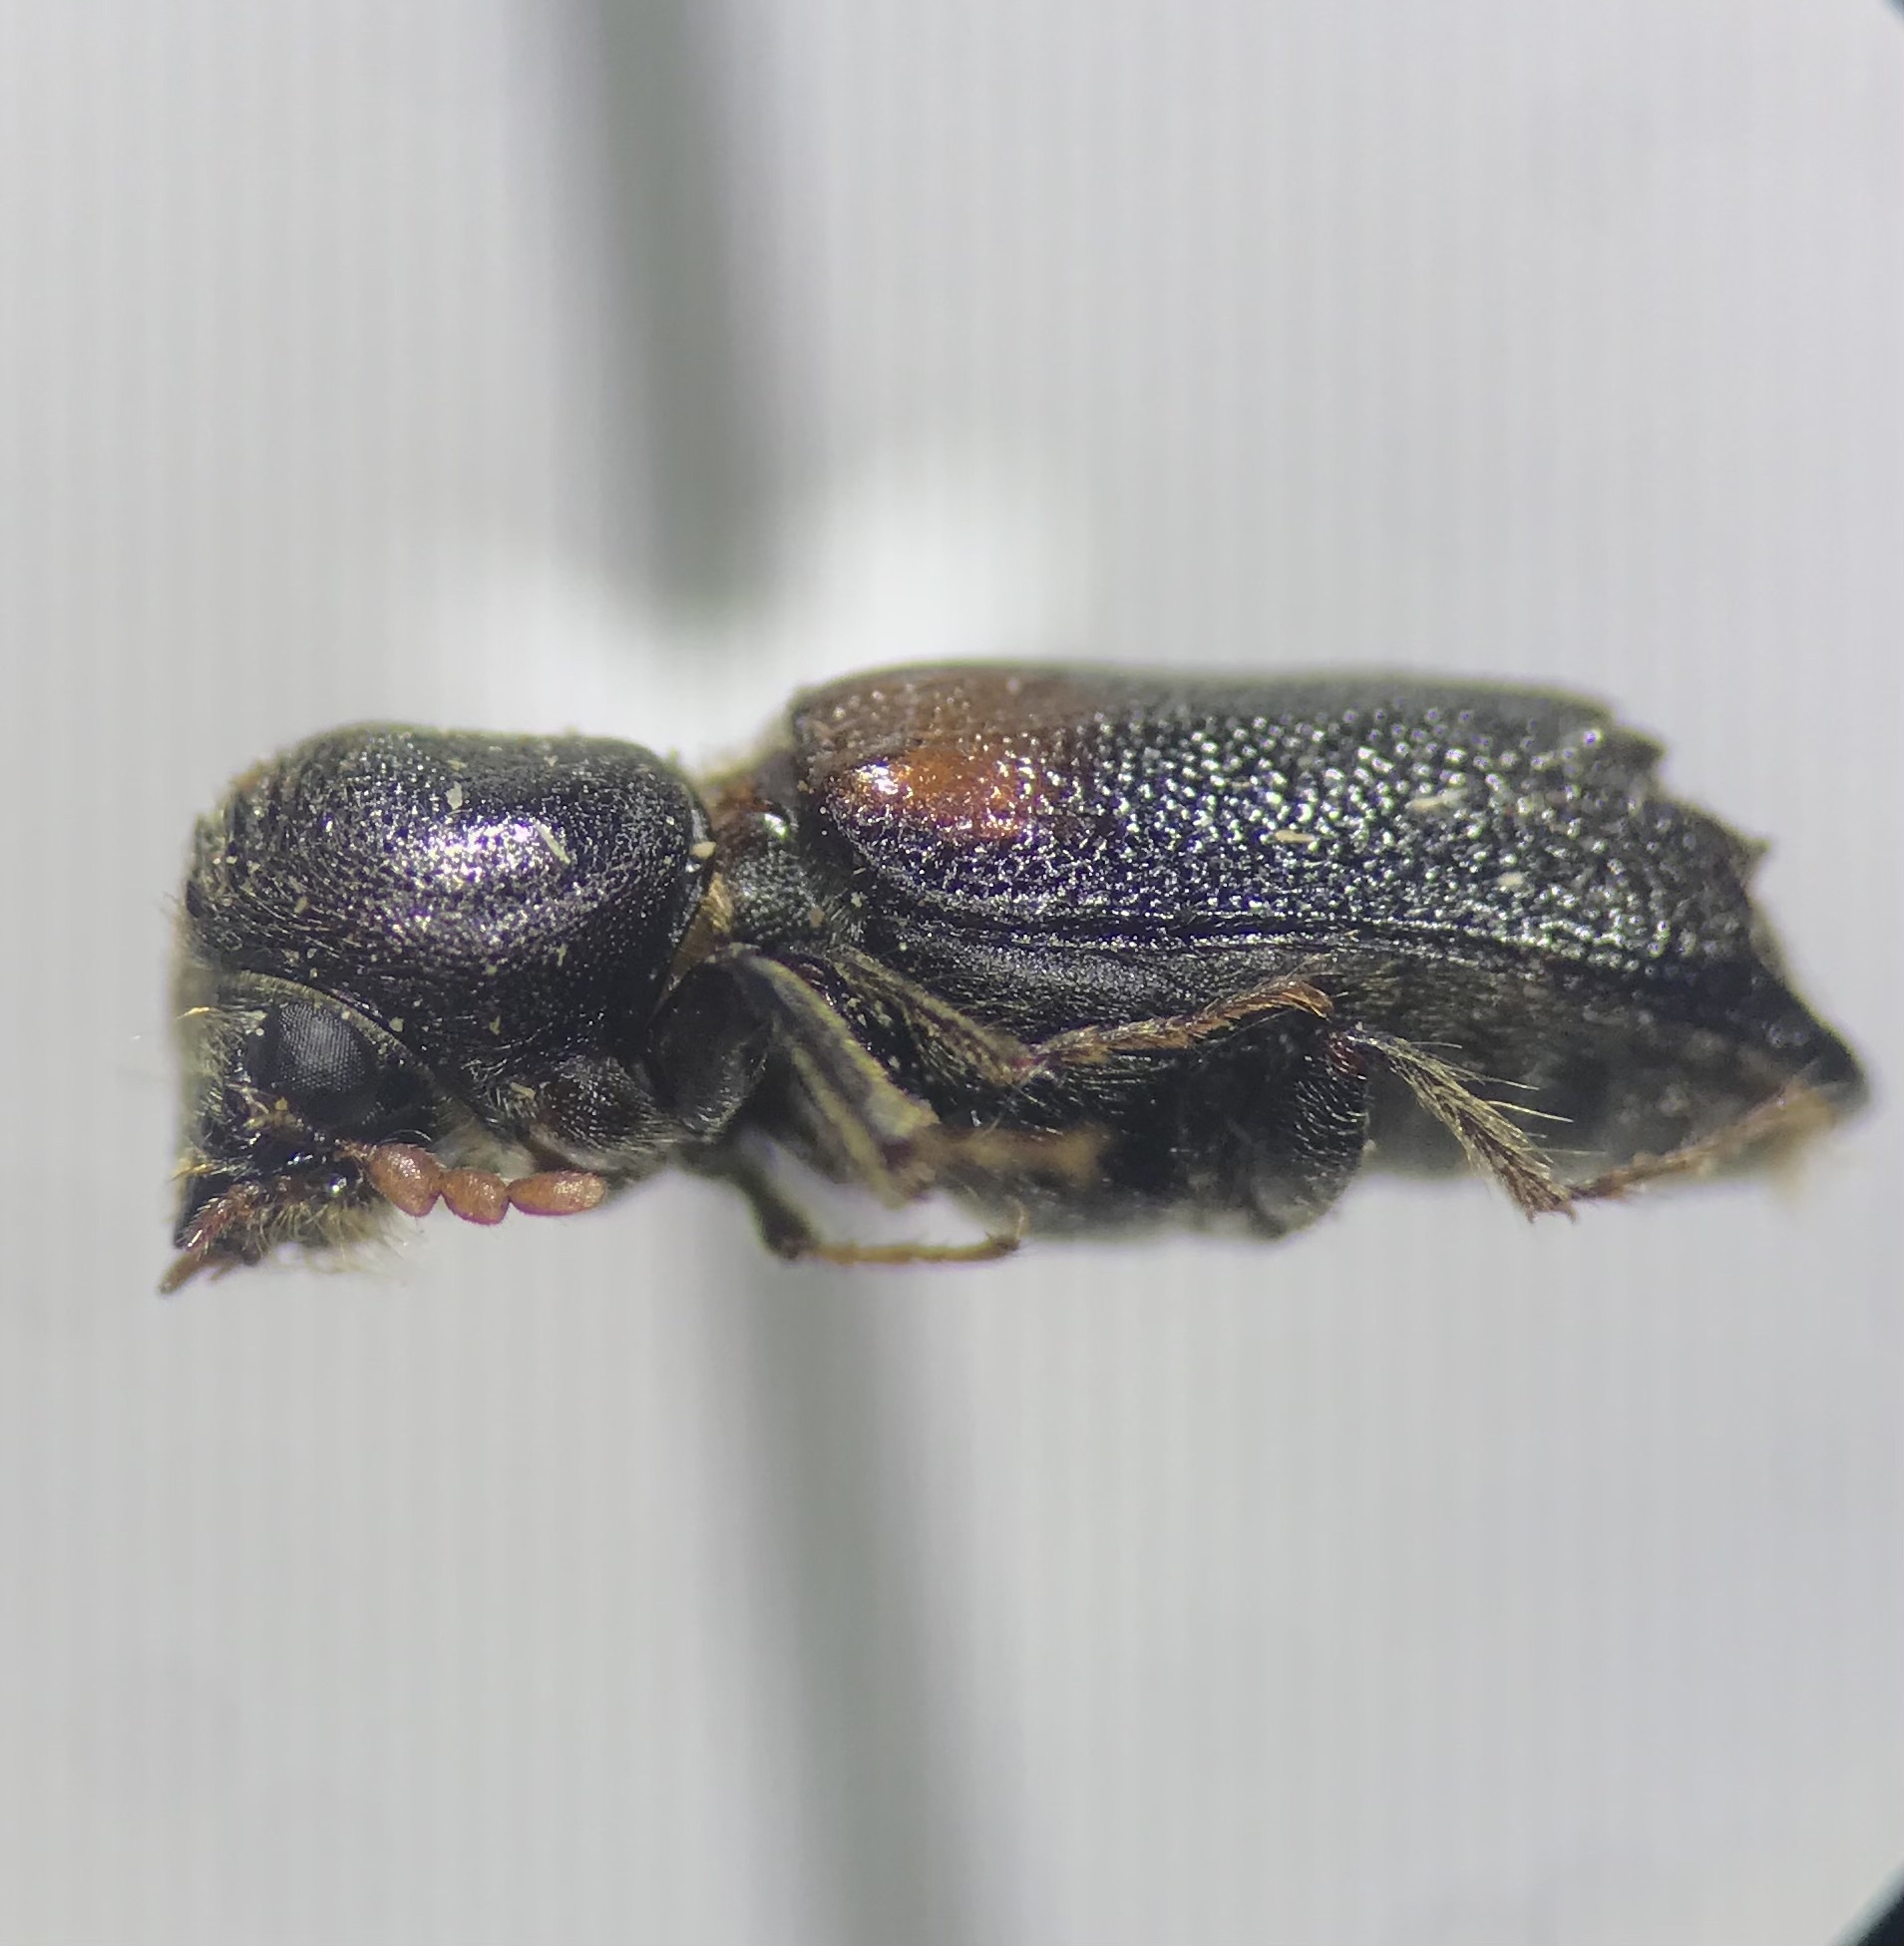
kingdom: Animalia
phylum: Arthropoda
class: Insecta
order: Coleoptera
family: Bostrichidae
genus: Xylobiops
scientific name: Xylobiops basilaris
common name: Red-shouldered bostrichid
